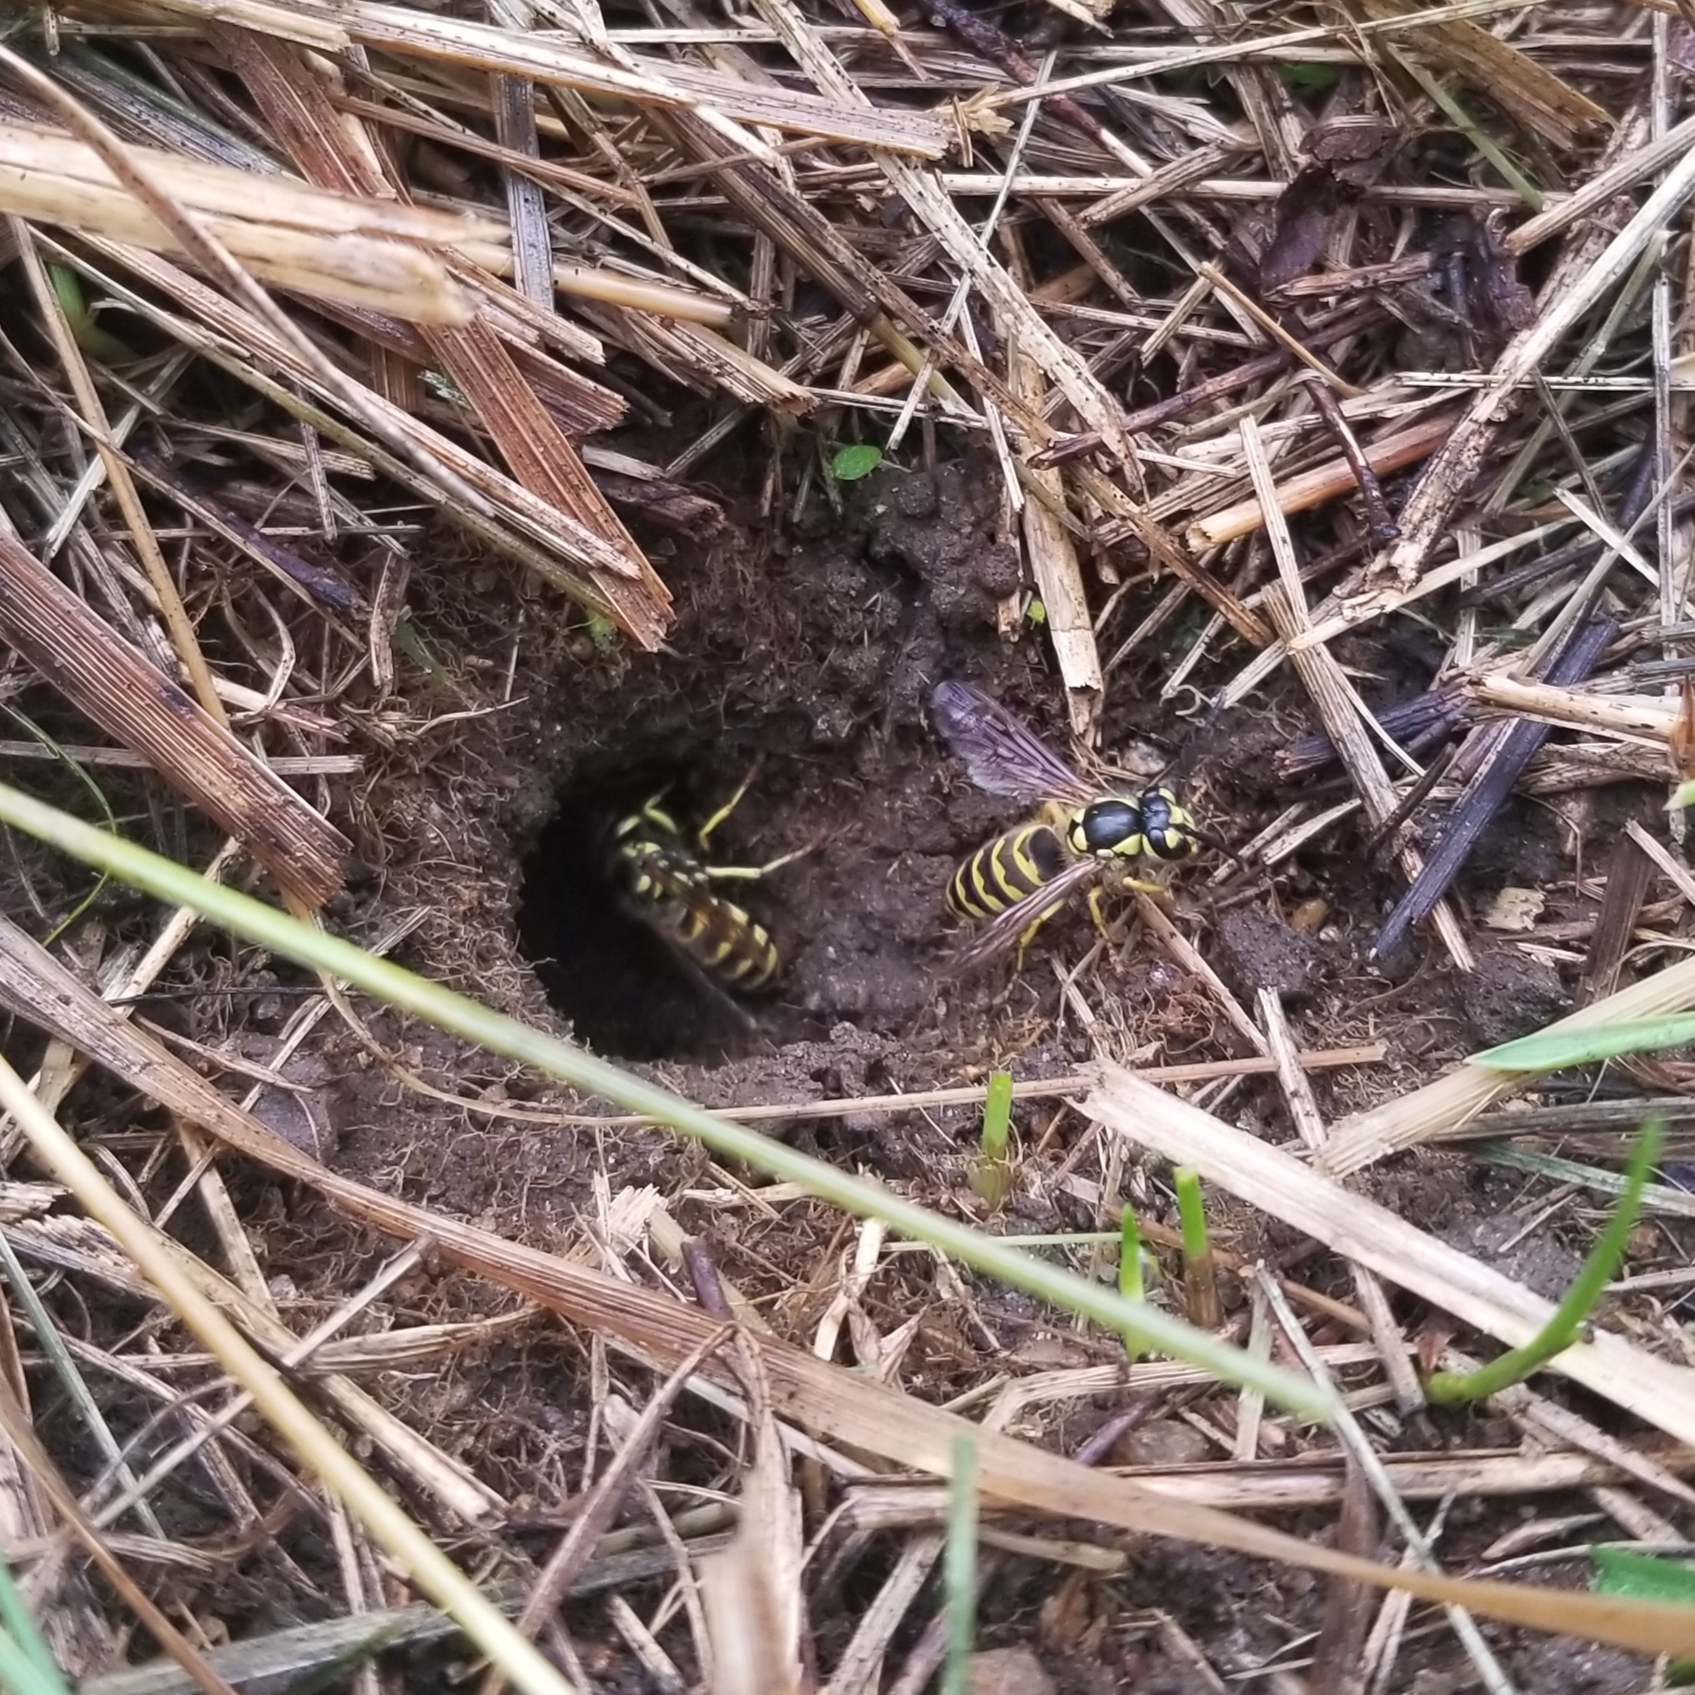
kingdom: Animalia
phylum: Arthropoda
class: Insecta
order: Hymenoptera
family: Vespidae
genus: Vespula
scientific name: Vespula flavopilosa
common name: Downy yellowjacket
